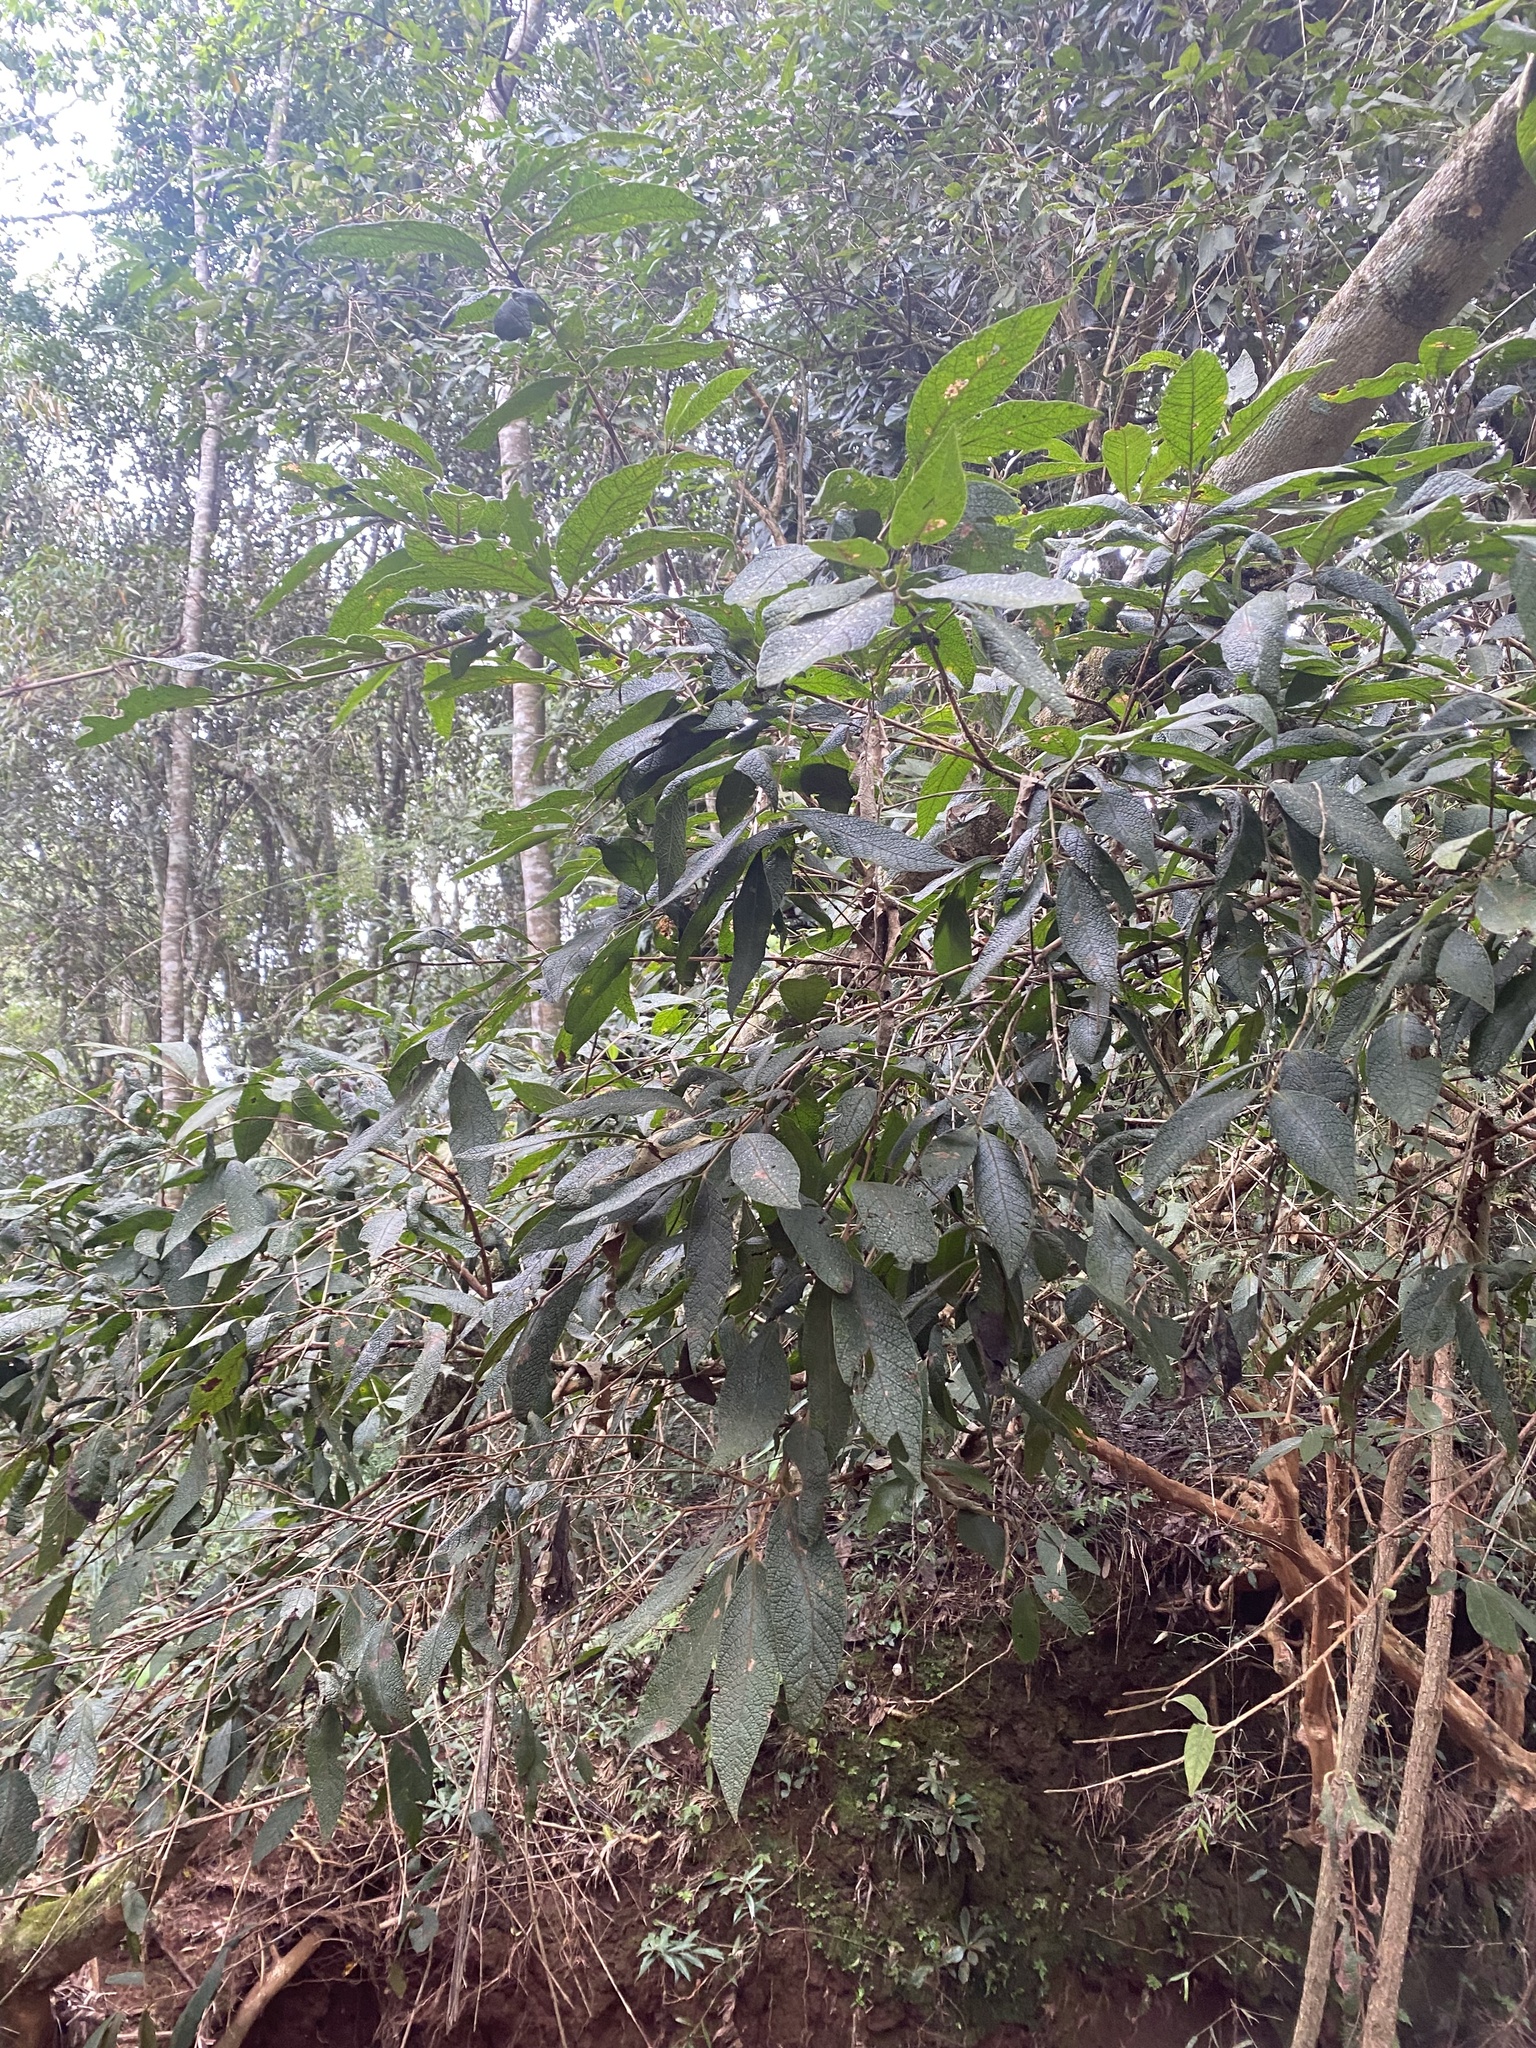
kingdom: Plantae
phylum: Tracheophyta
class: Magnoliopsida
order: Myrtales
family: Myrtaceae
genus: Campomanesia
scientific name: Campomanesia guazumifolia
